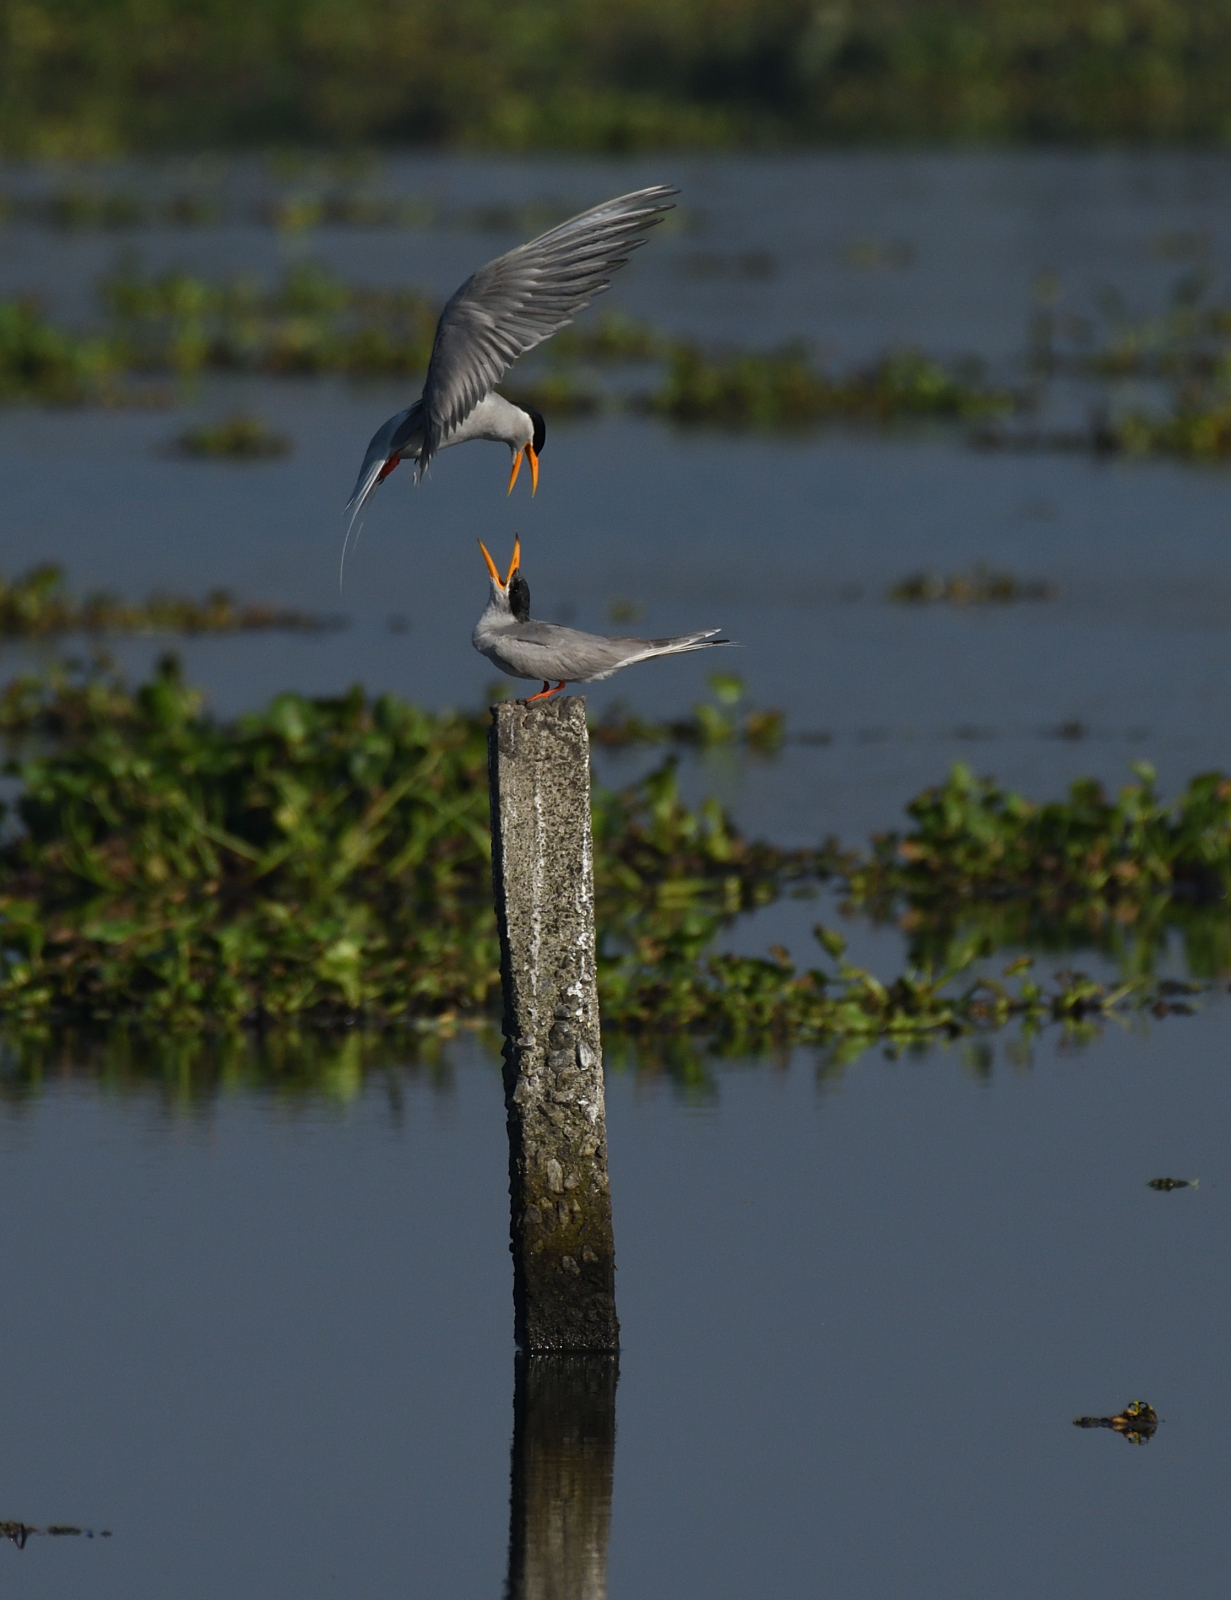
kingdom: Animalia
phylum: Chordata
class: Aves
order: Charadriiformes
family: Laridae
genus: Sterna
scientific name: Sterna aurantia
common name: River tern
